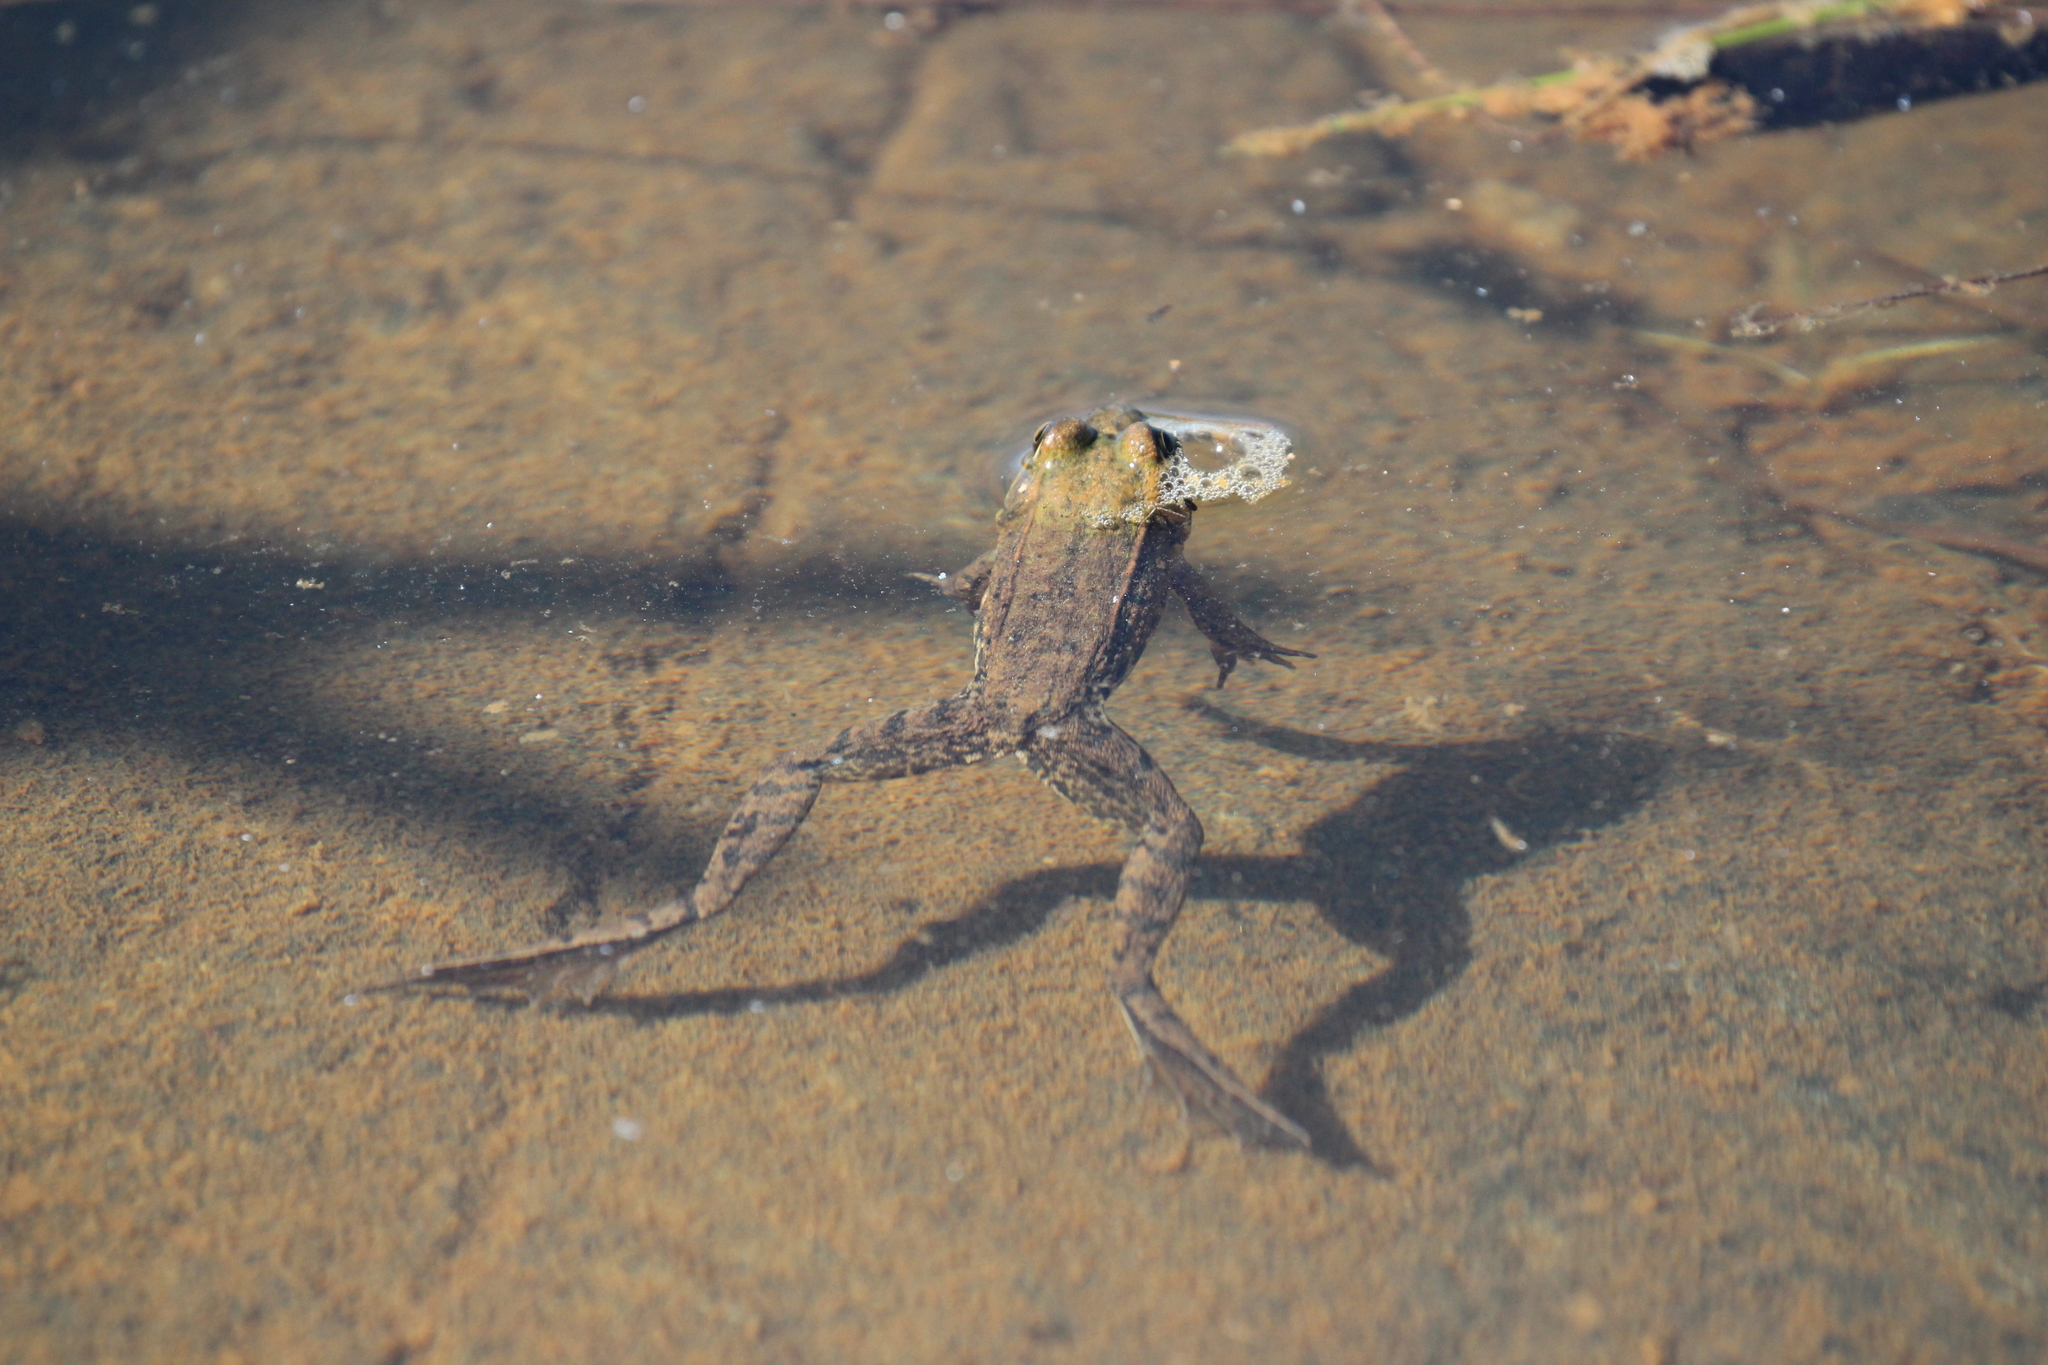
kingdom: Animalia
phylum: Chordata
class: Amphibia
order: Anura
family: Ranidae
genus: Lithobates
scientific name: Lithobates clamitans
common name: Green frog
